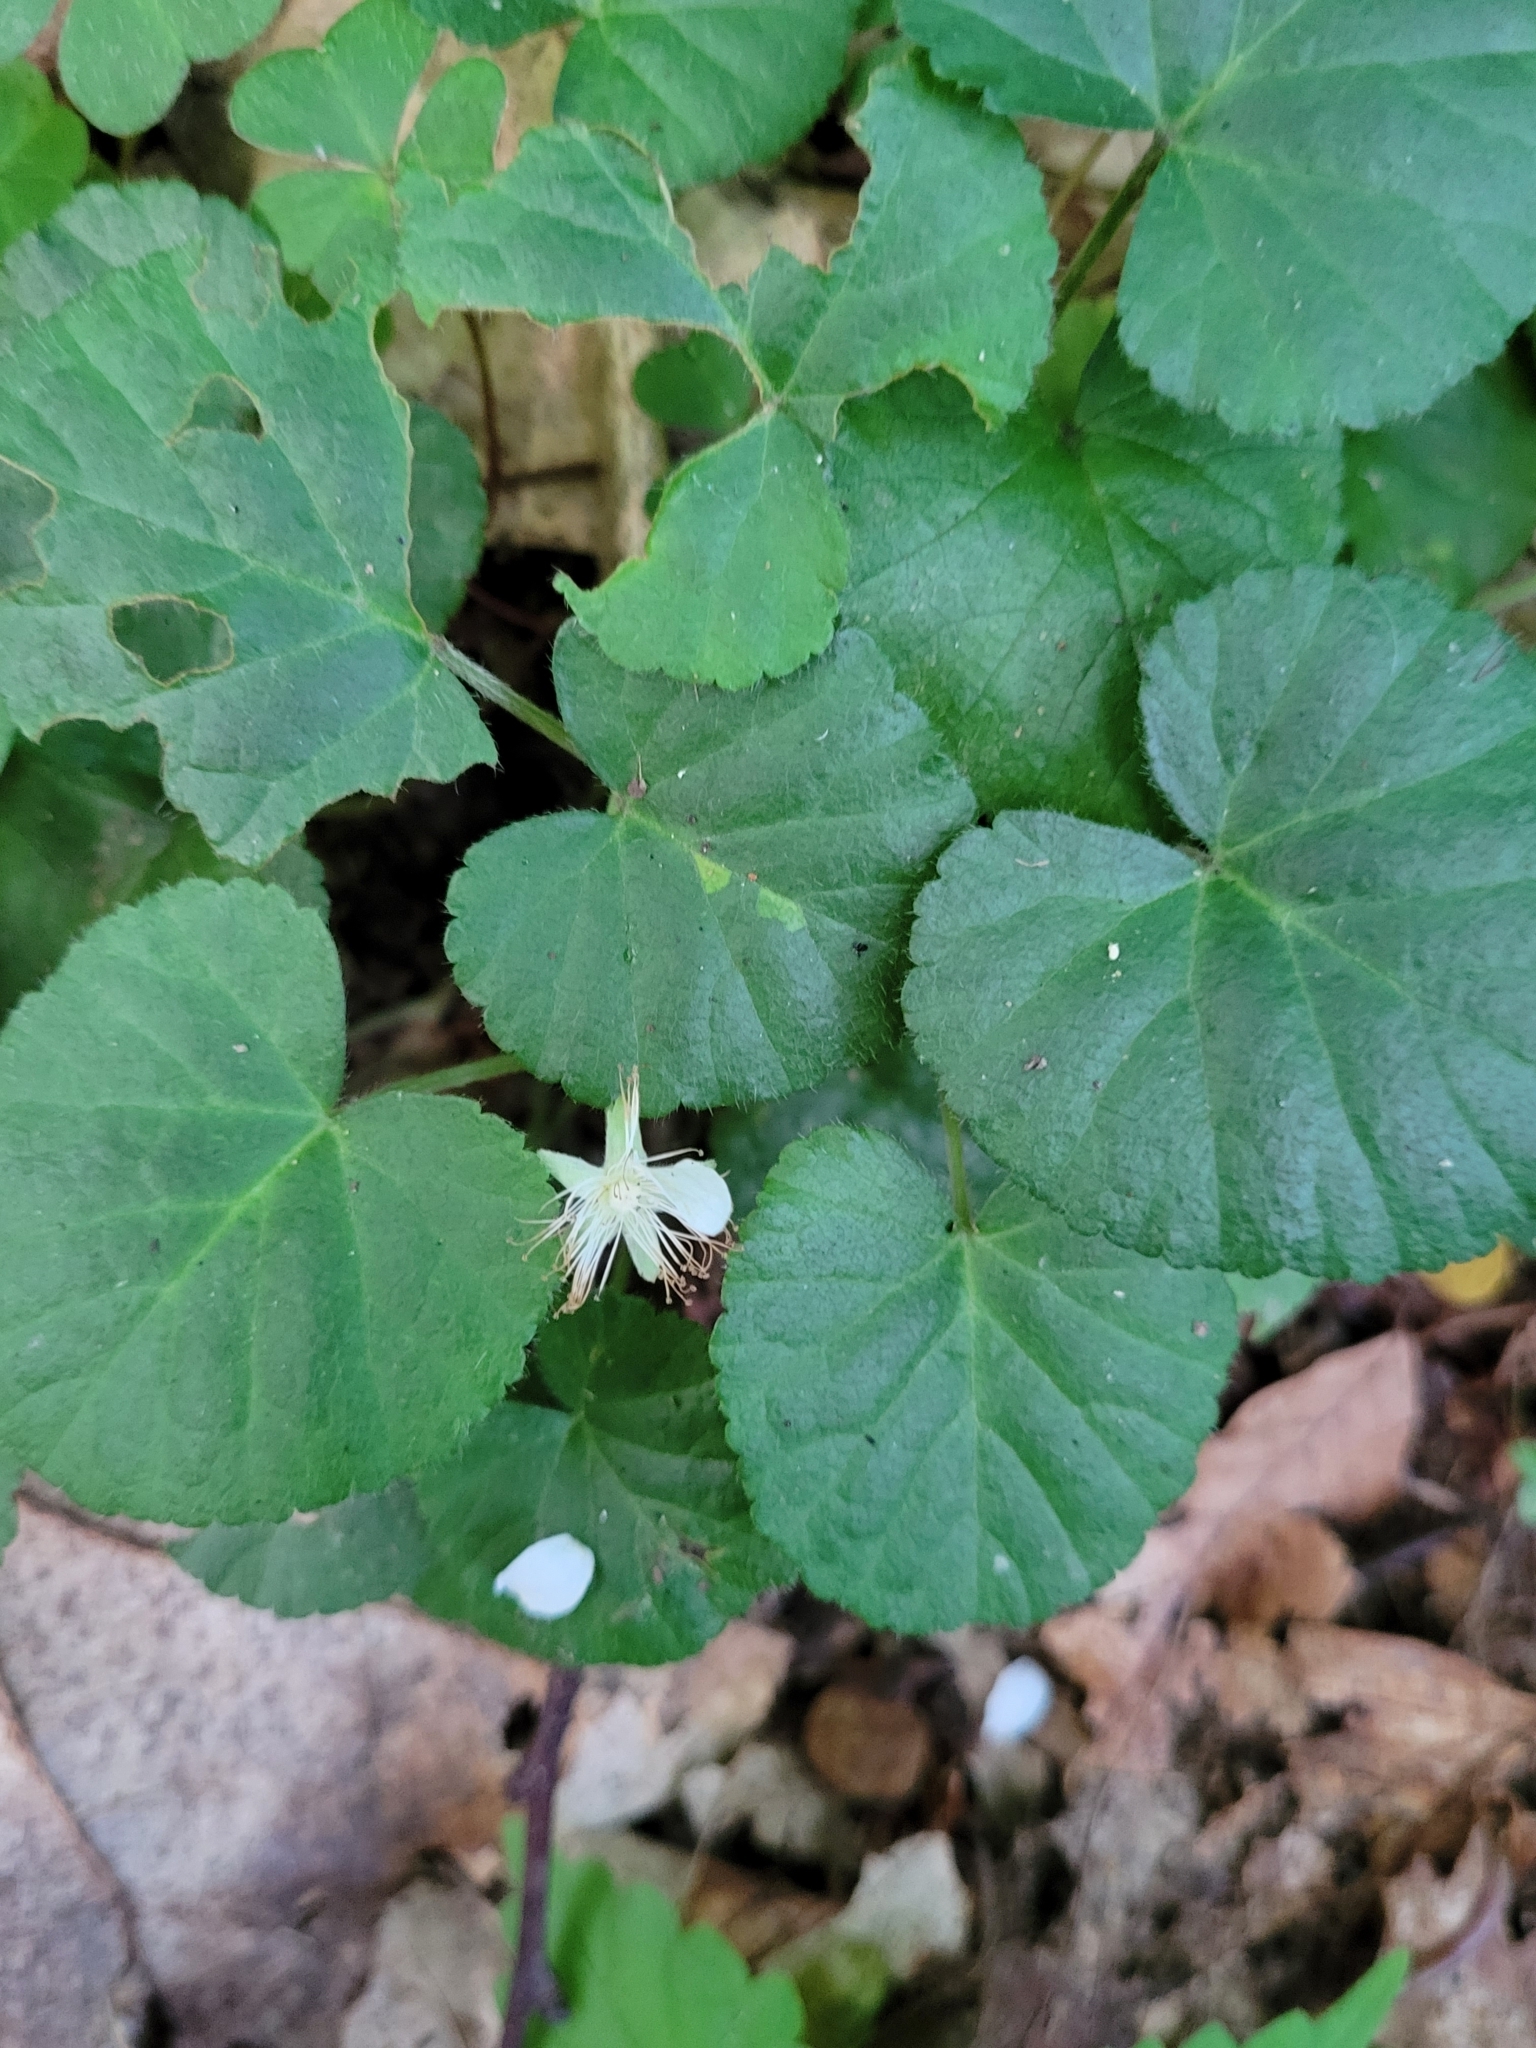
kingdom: Plantae
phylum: Tracheophyta
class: Magnoliopsida
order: Rosales
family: Rosaceae
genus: Dalibarda
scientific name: Dalibarda repens
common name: Dewdrop
